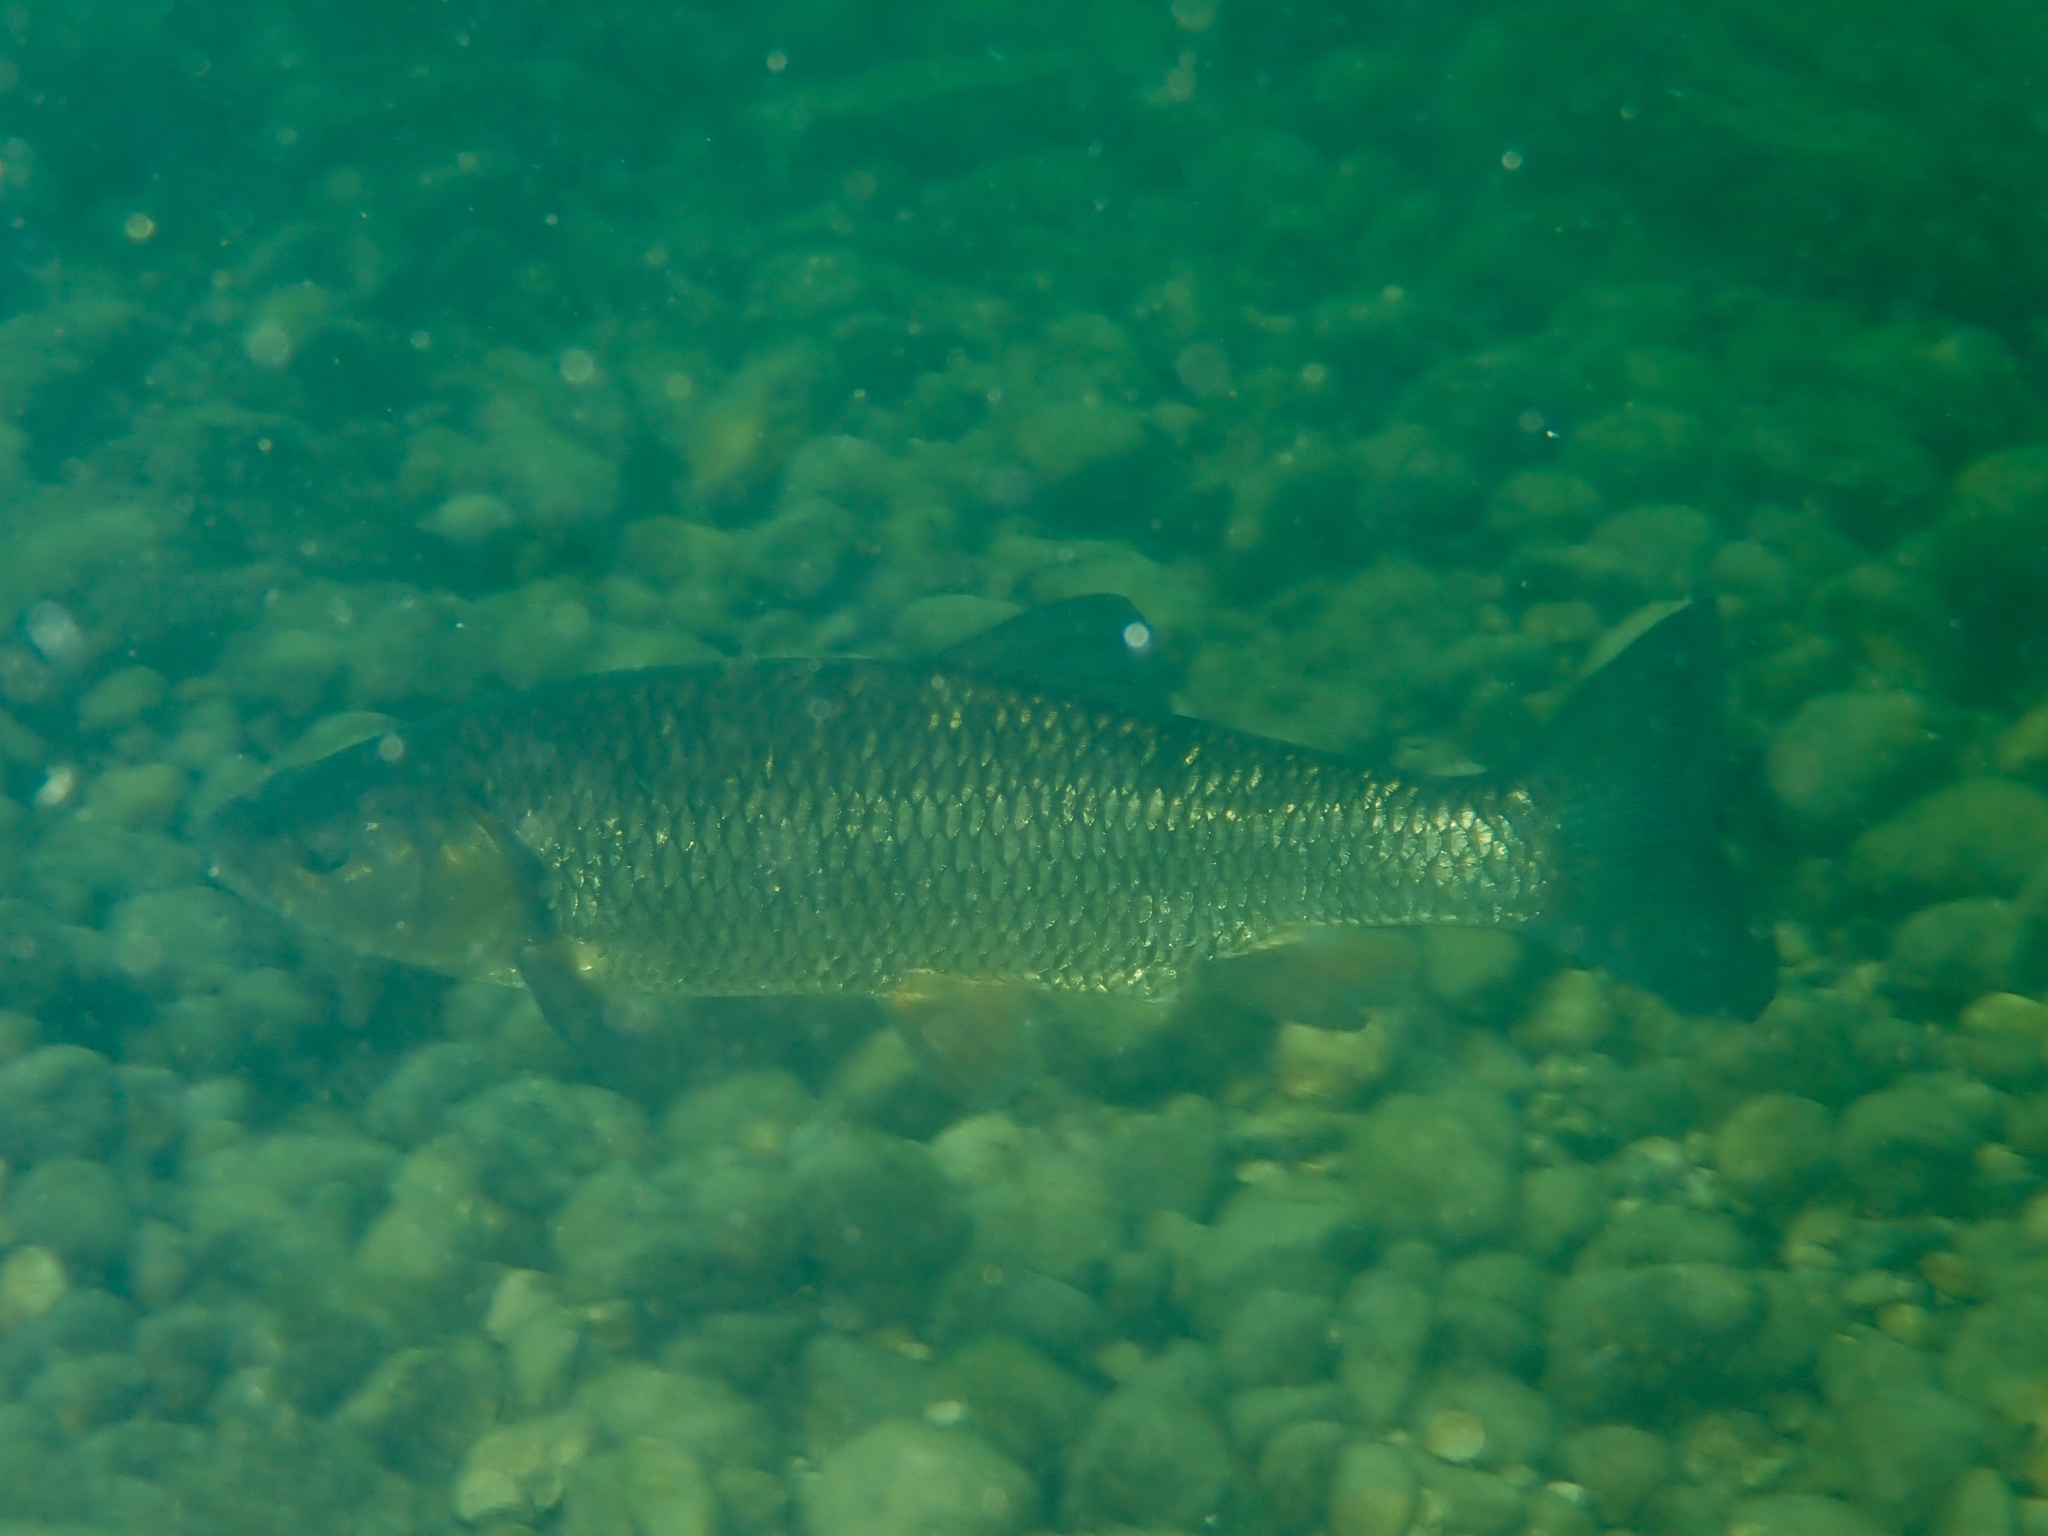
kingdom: Animalia
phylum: Chordata
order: Cypriniformes
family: Cyprinidae
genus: Squalius
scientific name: Squalius cephalus
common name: Chub
